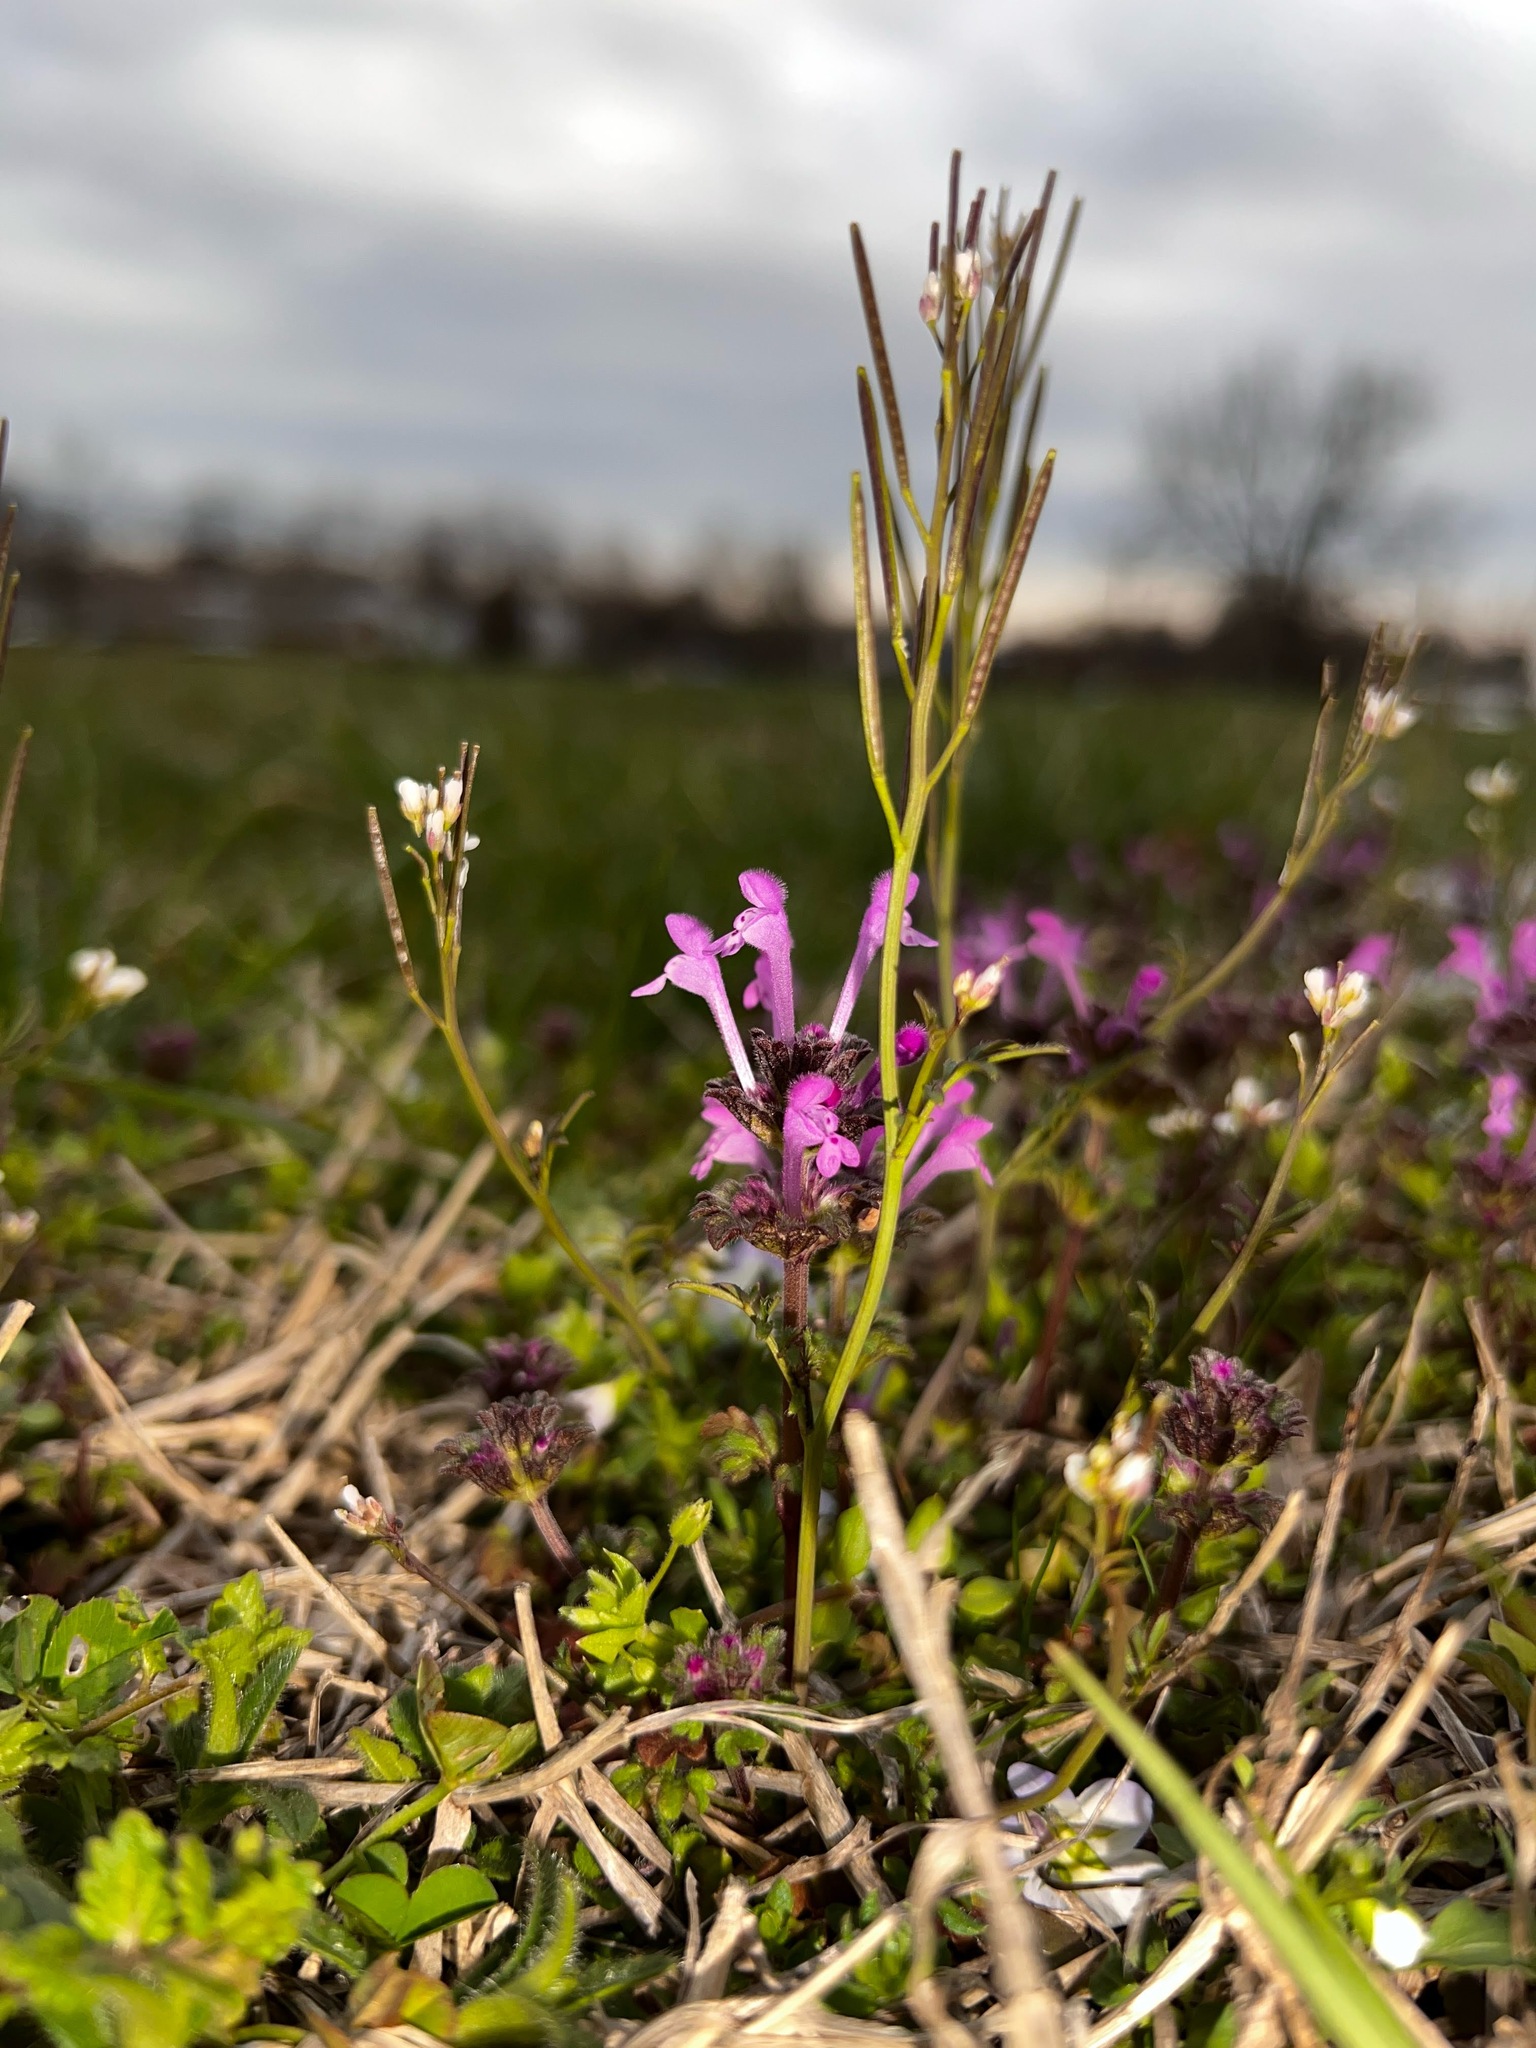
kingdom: Plantae
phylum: Tracheophyta
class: Magnoliopsida
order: Lamiales
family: Lamiaceae
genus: Lamium
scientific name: Lamium amplexicaule
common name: Henbit dead-nettle
